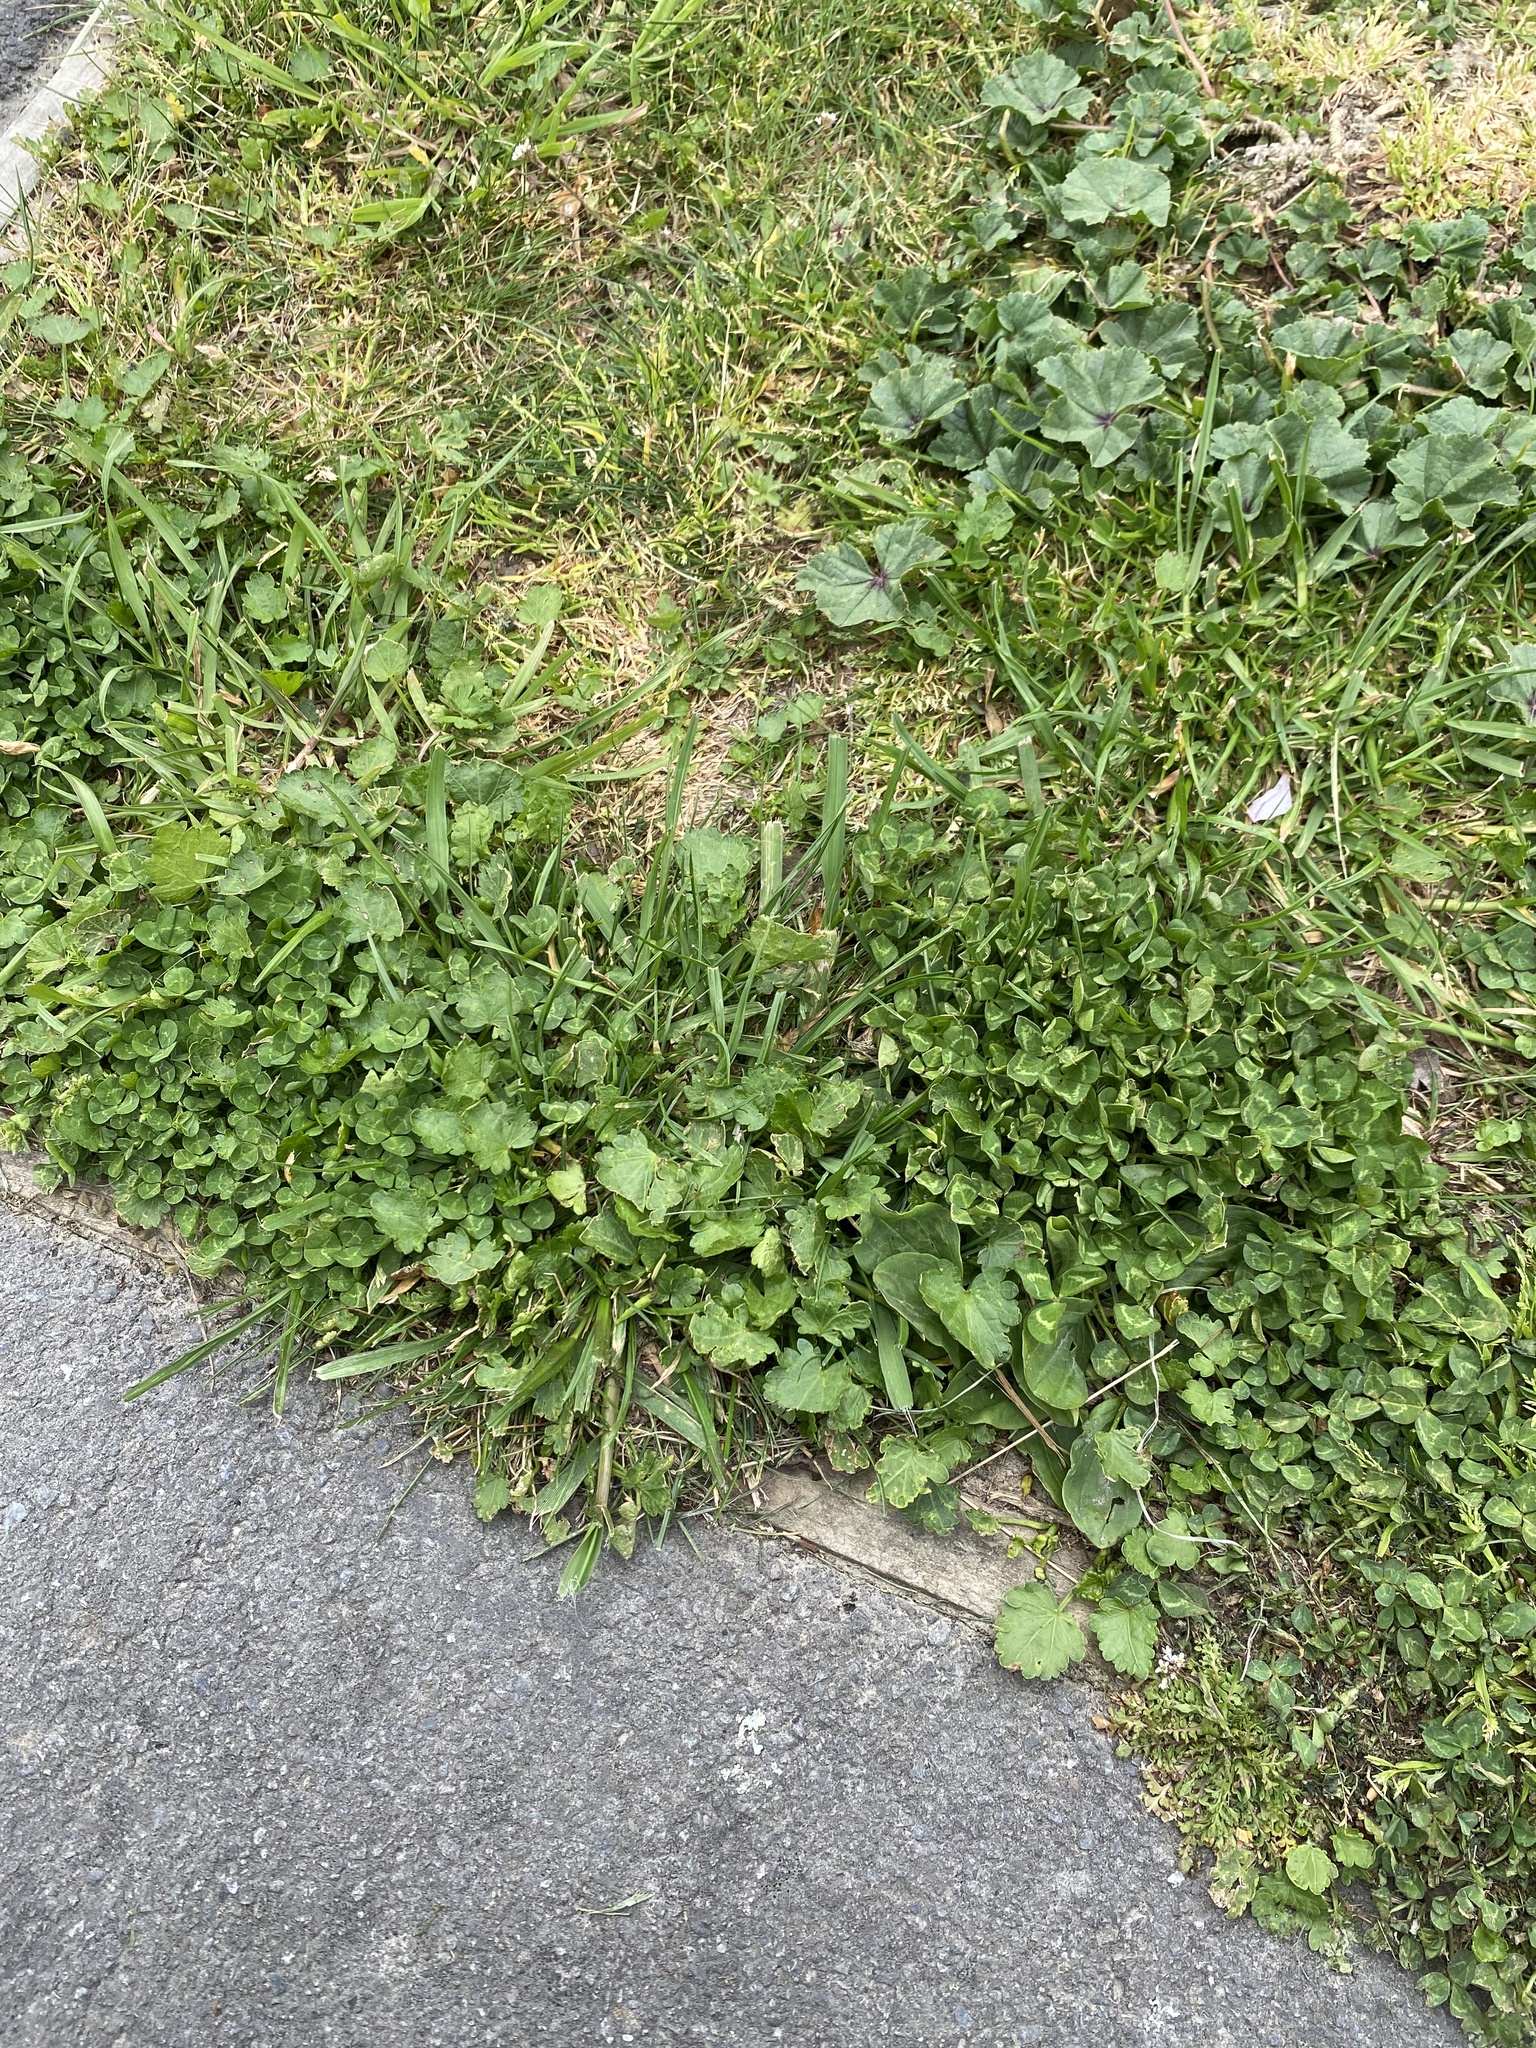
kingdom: Plantae
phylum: Tracheophyta
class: Magnoliopsida
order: Malvales
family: Malvaceae
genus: Modiola
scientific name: Modiola caroliniana
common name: Carolina bristlemallow
